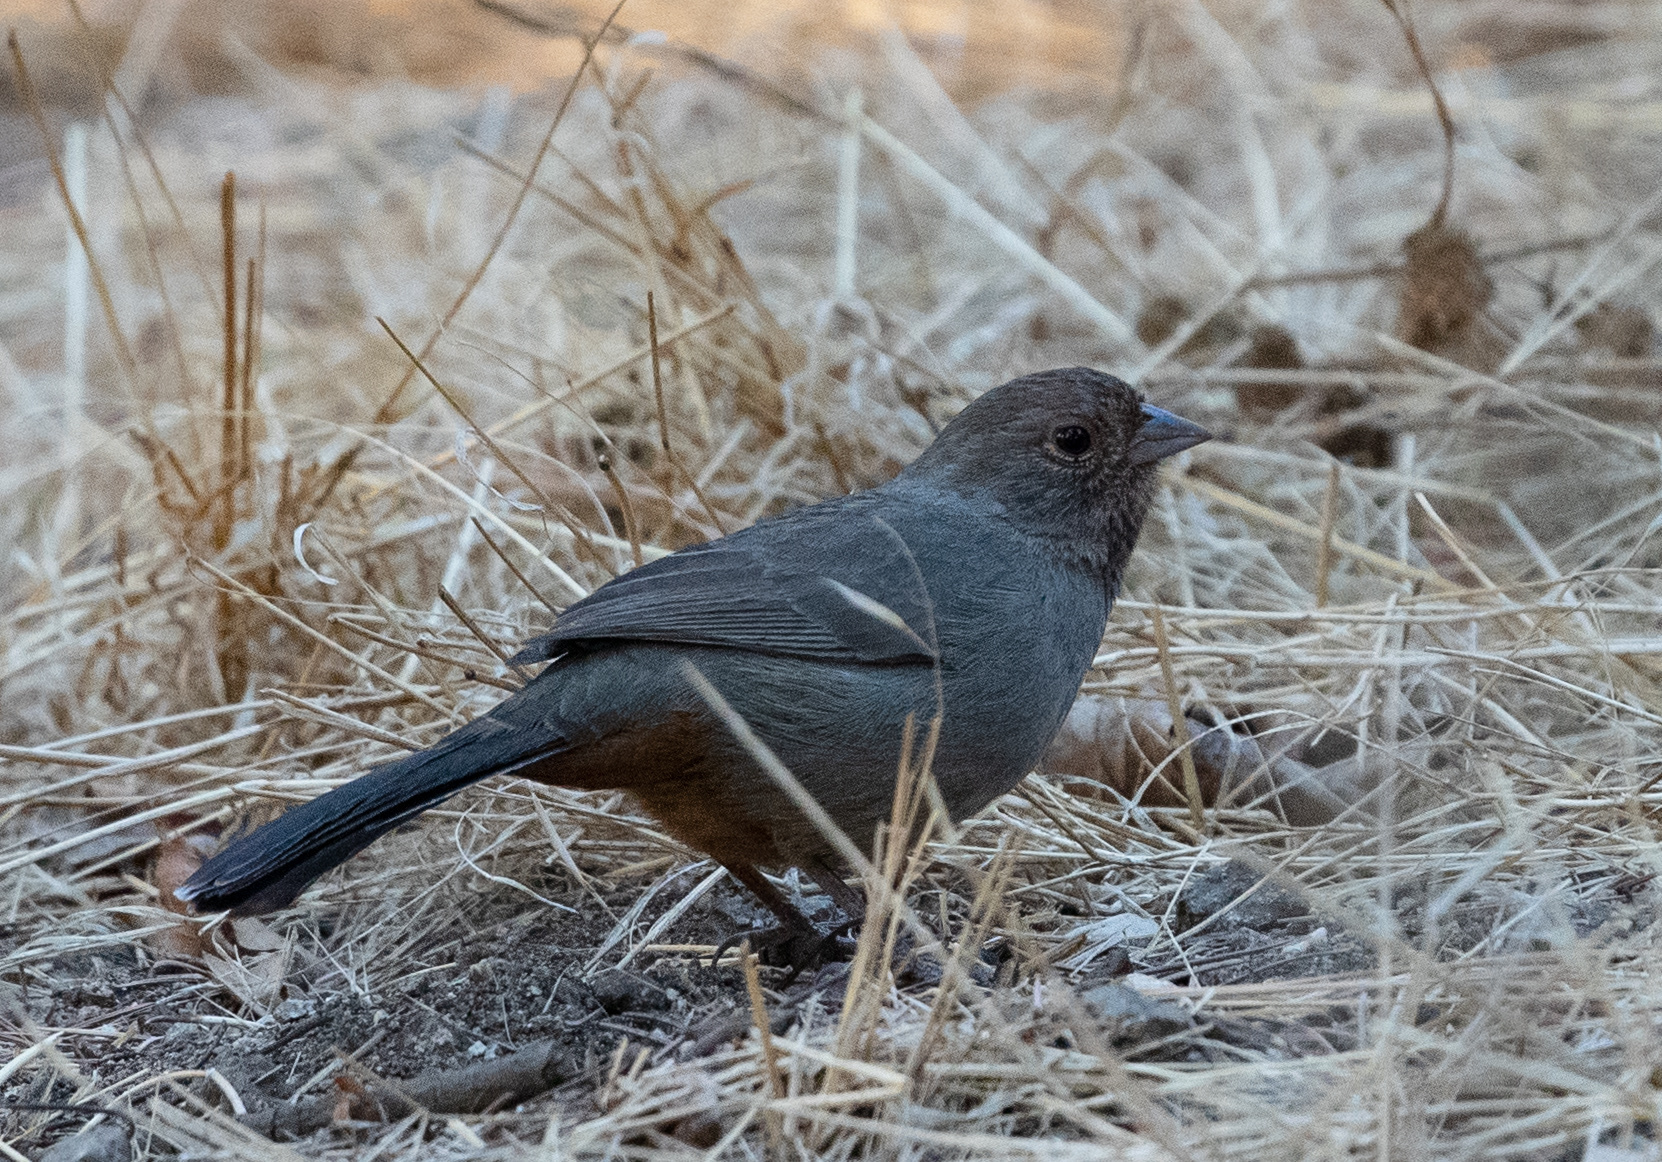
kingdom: Animalia
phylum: Chordata
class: Aves
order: Passeriformes
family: Passerellidae
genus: Melozone
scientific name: Melozone crissalis
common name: California towhee
